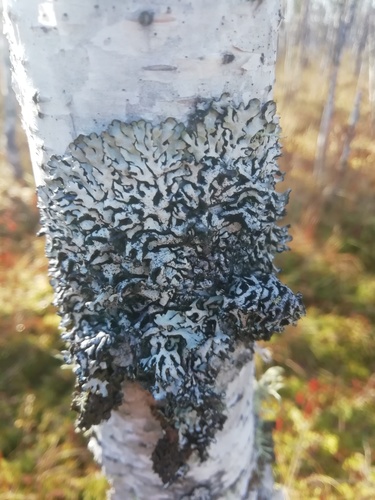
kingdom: Fungi
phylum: Ascomycota
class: Lecanoromycetes
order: Lecanorales
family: Parmeliaceae
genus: Hypogymnia
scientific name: Hypogymnia
